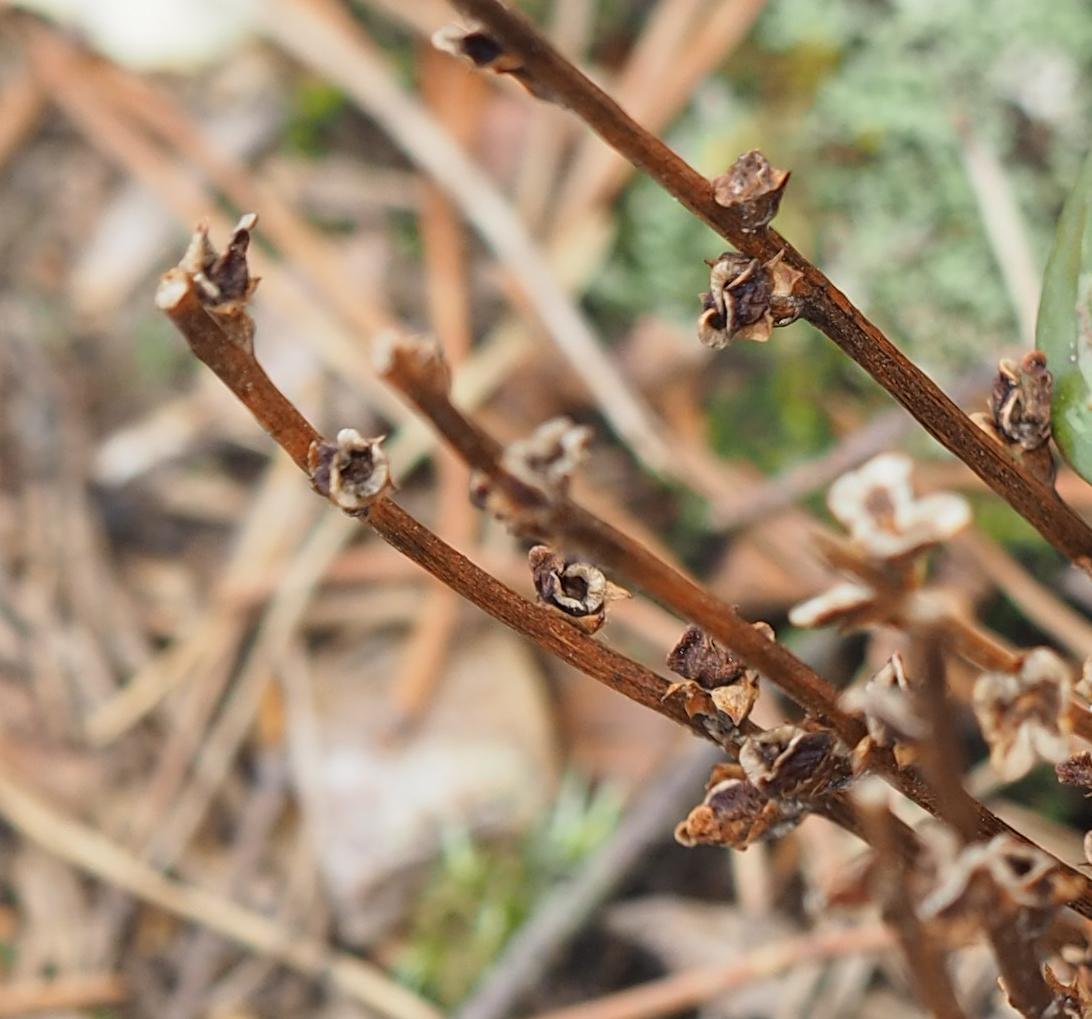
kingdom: Plantae
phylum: Tracheophyta
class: Magnoliopsida
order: Lamiales
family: Orobanchaceae
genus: Epifagus
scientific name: Epifagus virginiana
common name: Beechdrops
